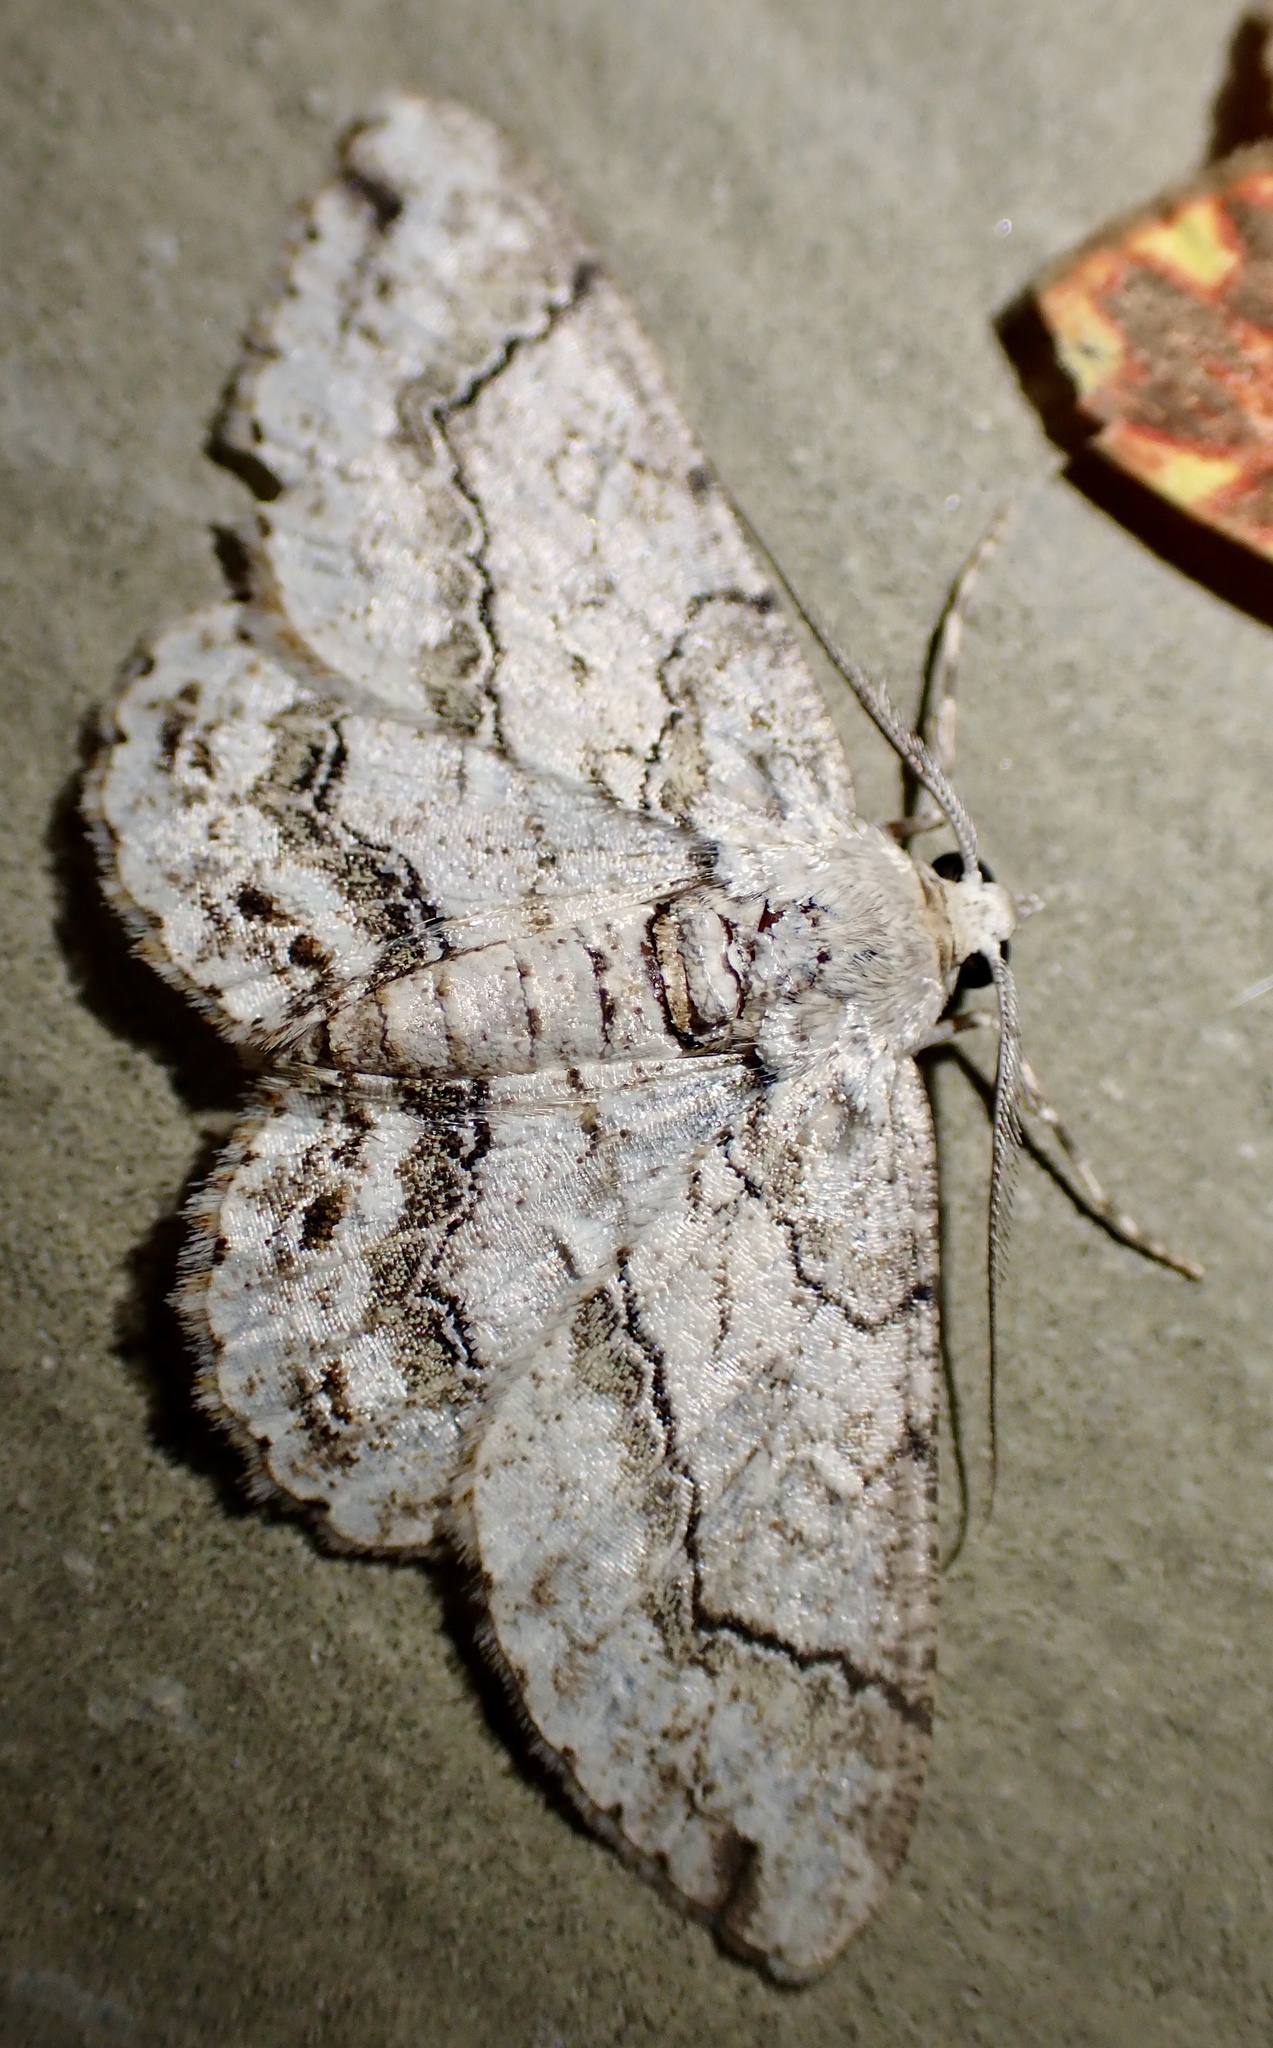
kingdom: Animalia
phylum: Arthropoda
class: Insecta
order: Lepidoptera
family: Geometridae
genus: Cleora
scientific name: Cleora compectinata
